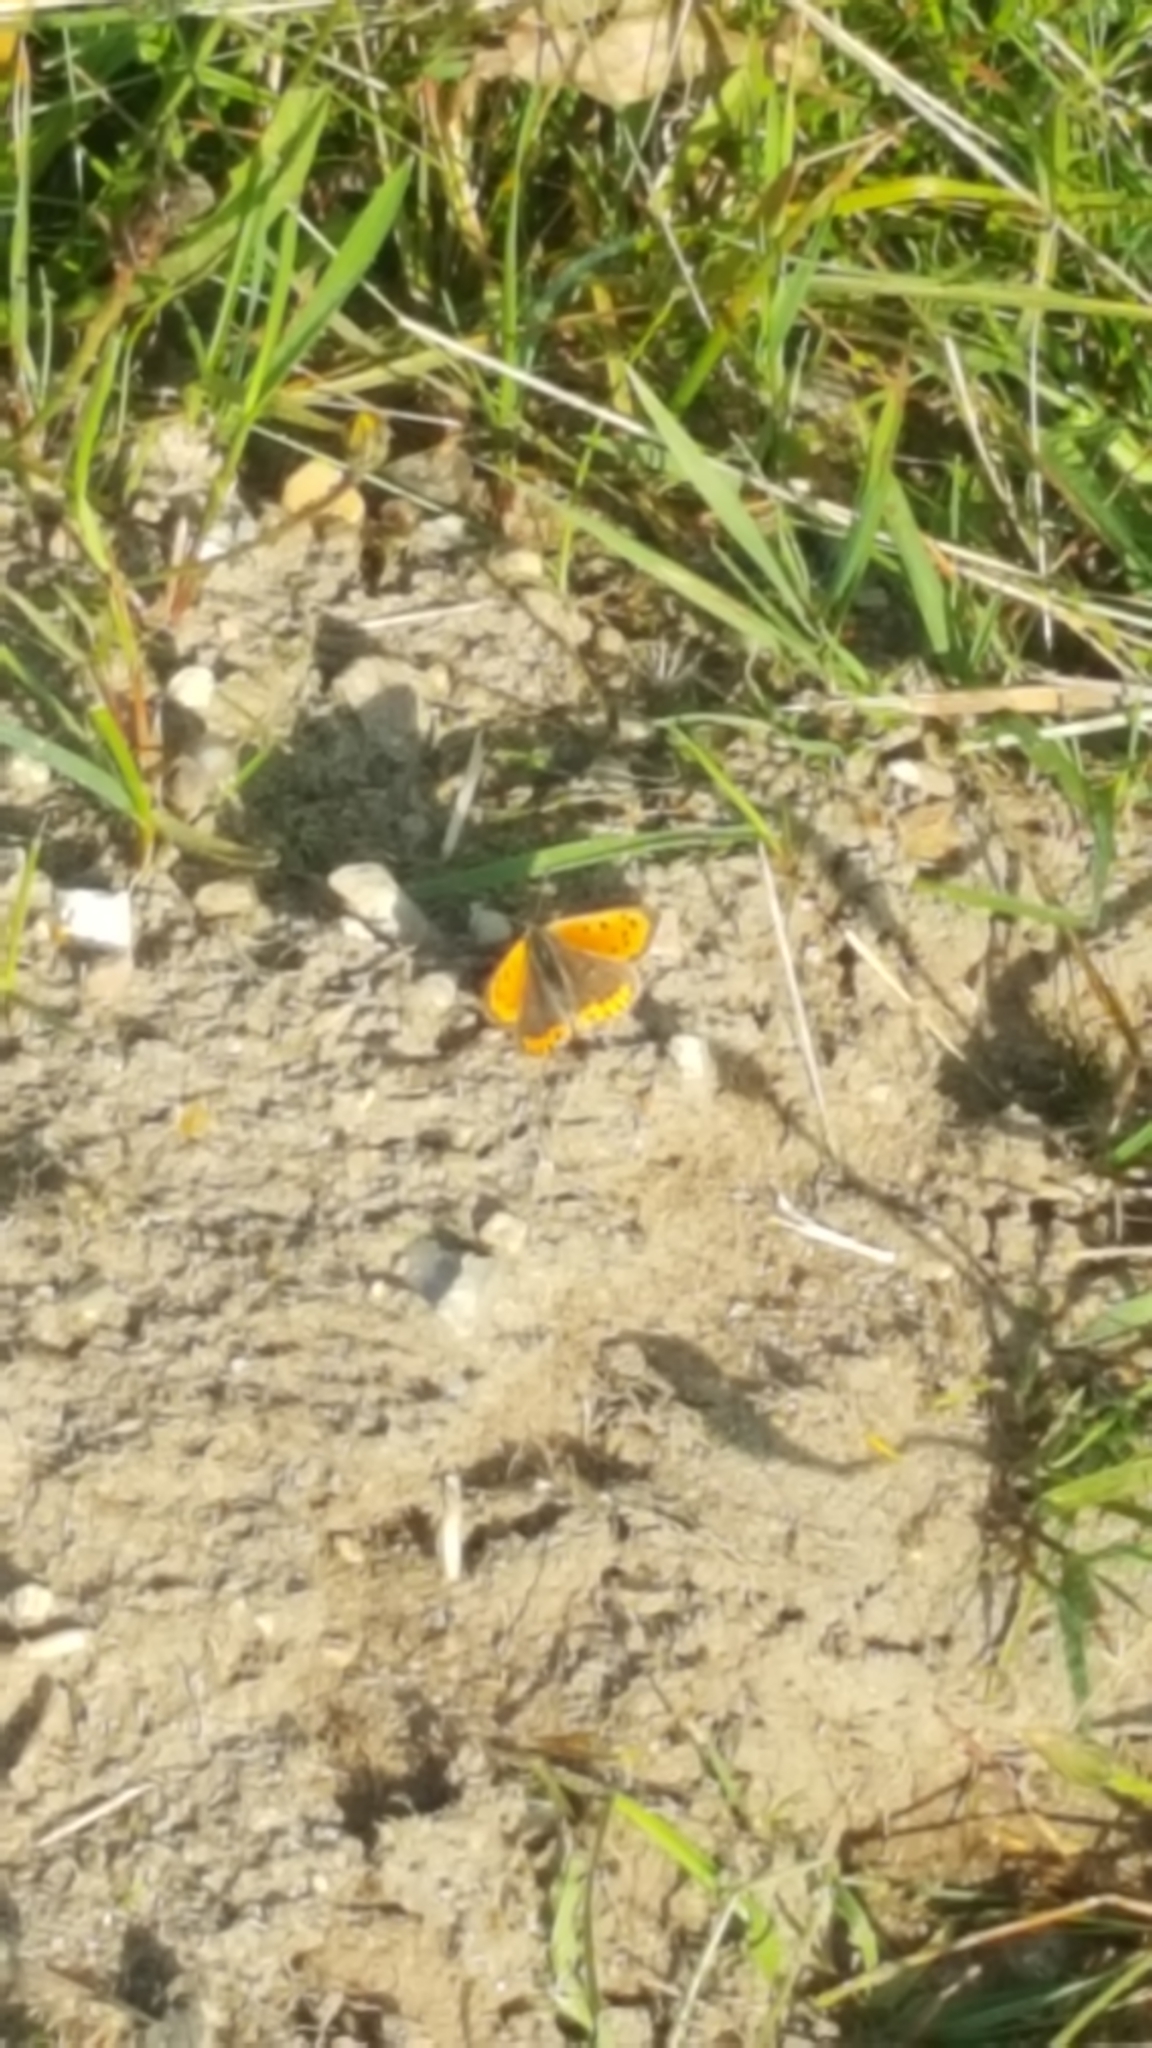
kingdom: Animalia
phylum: Arthropoda
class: Insecta
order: Lepidoptera
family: Lycaenidae
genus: Lycaena
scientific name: Lycaena phlaeas
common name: Small copper
